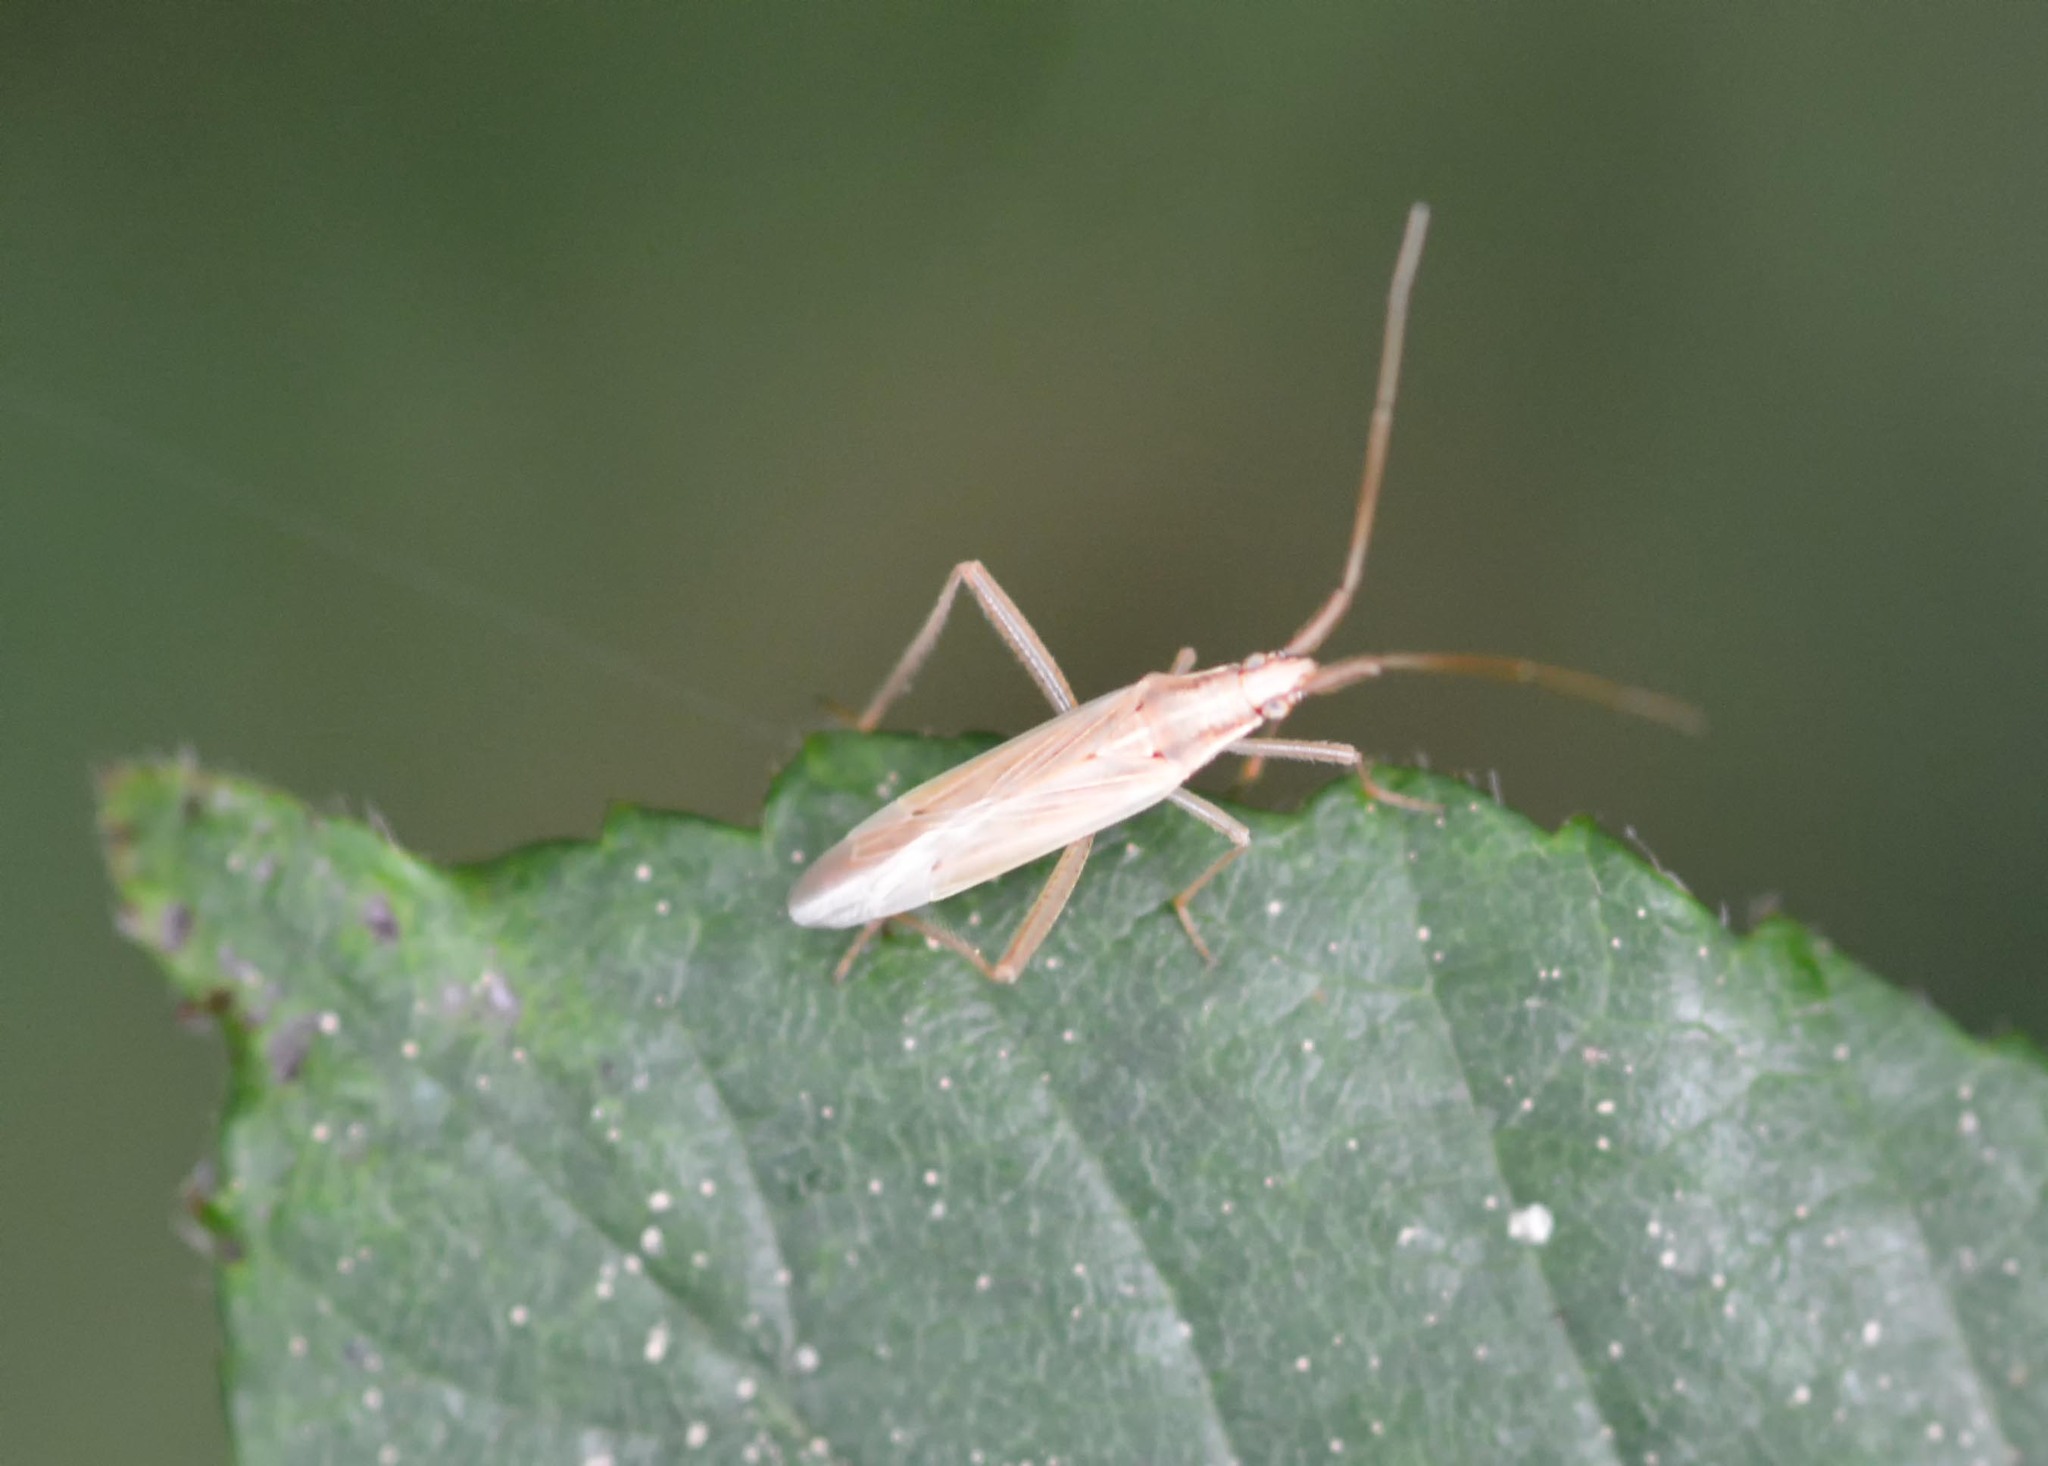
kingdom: Animalia
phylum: Arthropoda
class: Insecta
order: Hemiptera
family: Miridae
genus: Stenodema
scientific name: Stenodema laevigata
